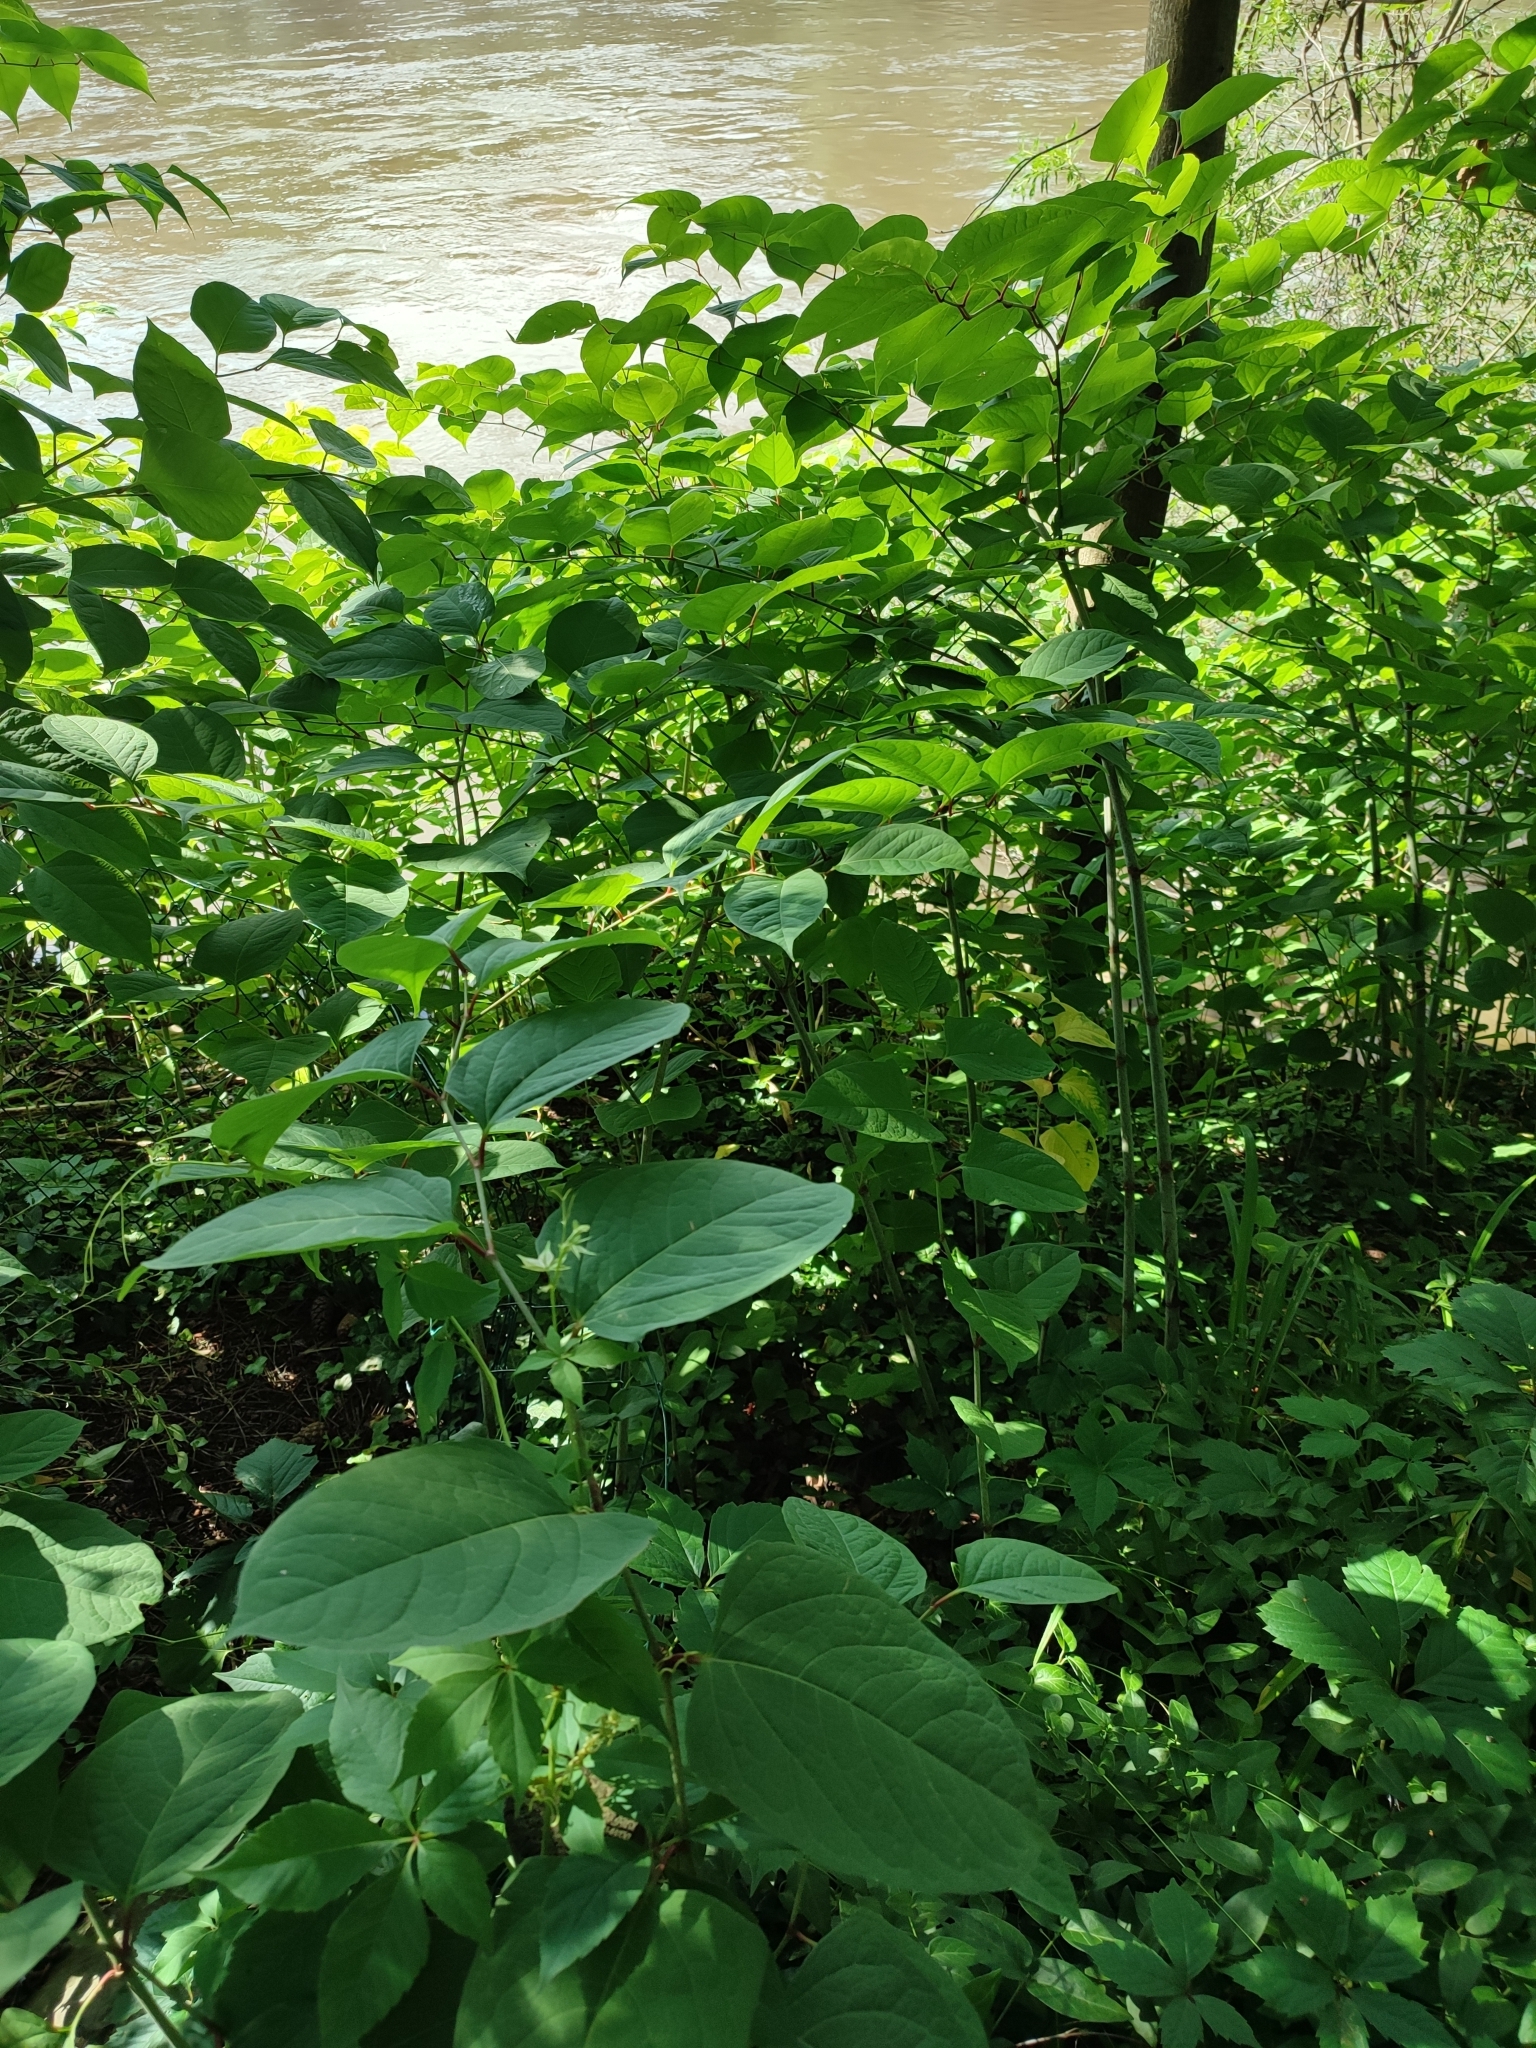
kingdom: Plantae
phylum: Tracheophyta
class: Magnoliopsida
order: Caryophyllales
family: Polygonaceae
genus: Reynoutria
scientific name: Reynoutria japonica
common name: Japanese knotweed
